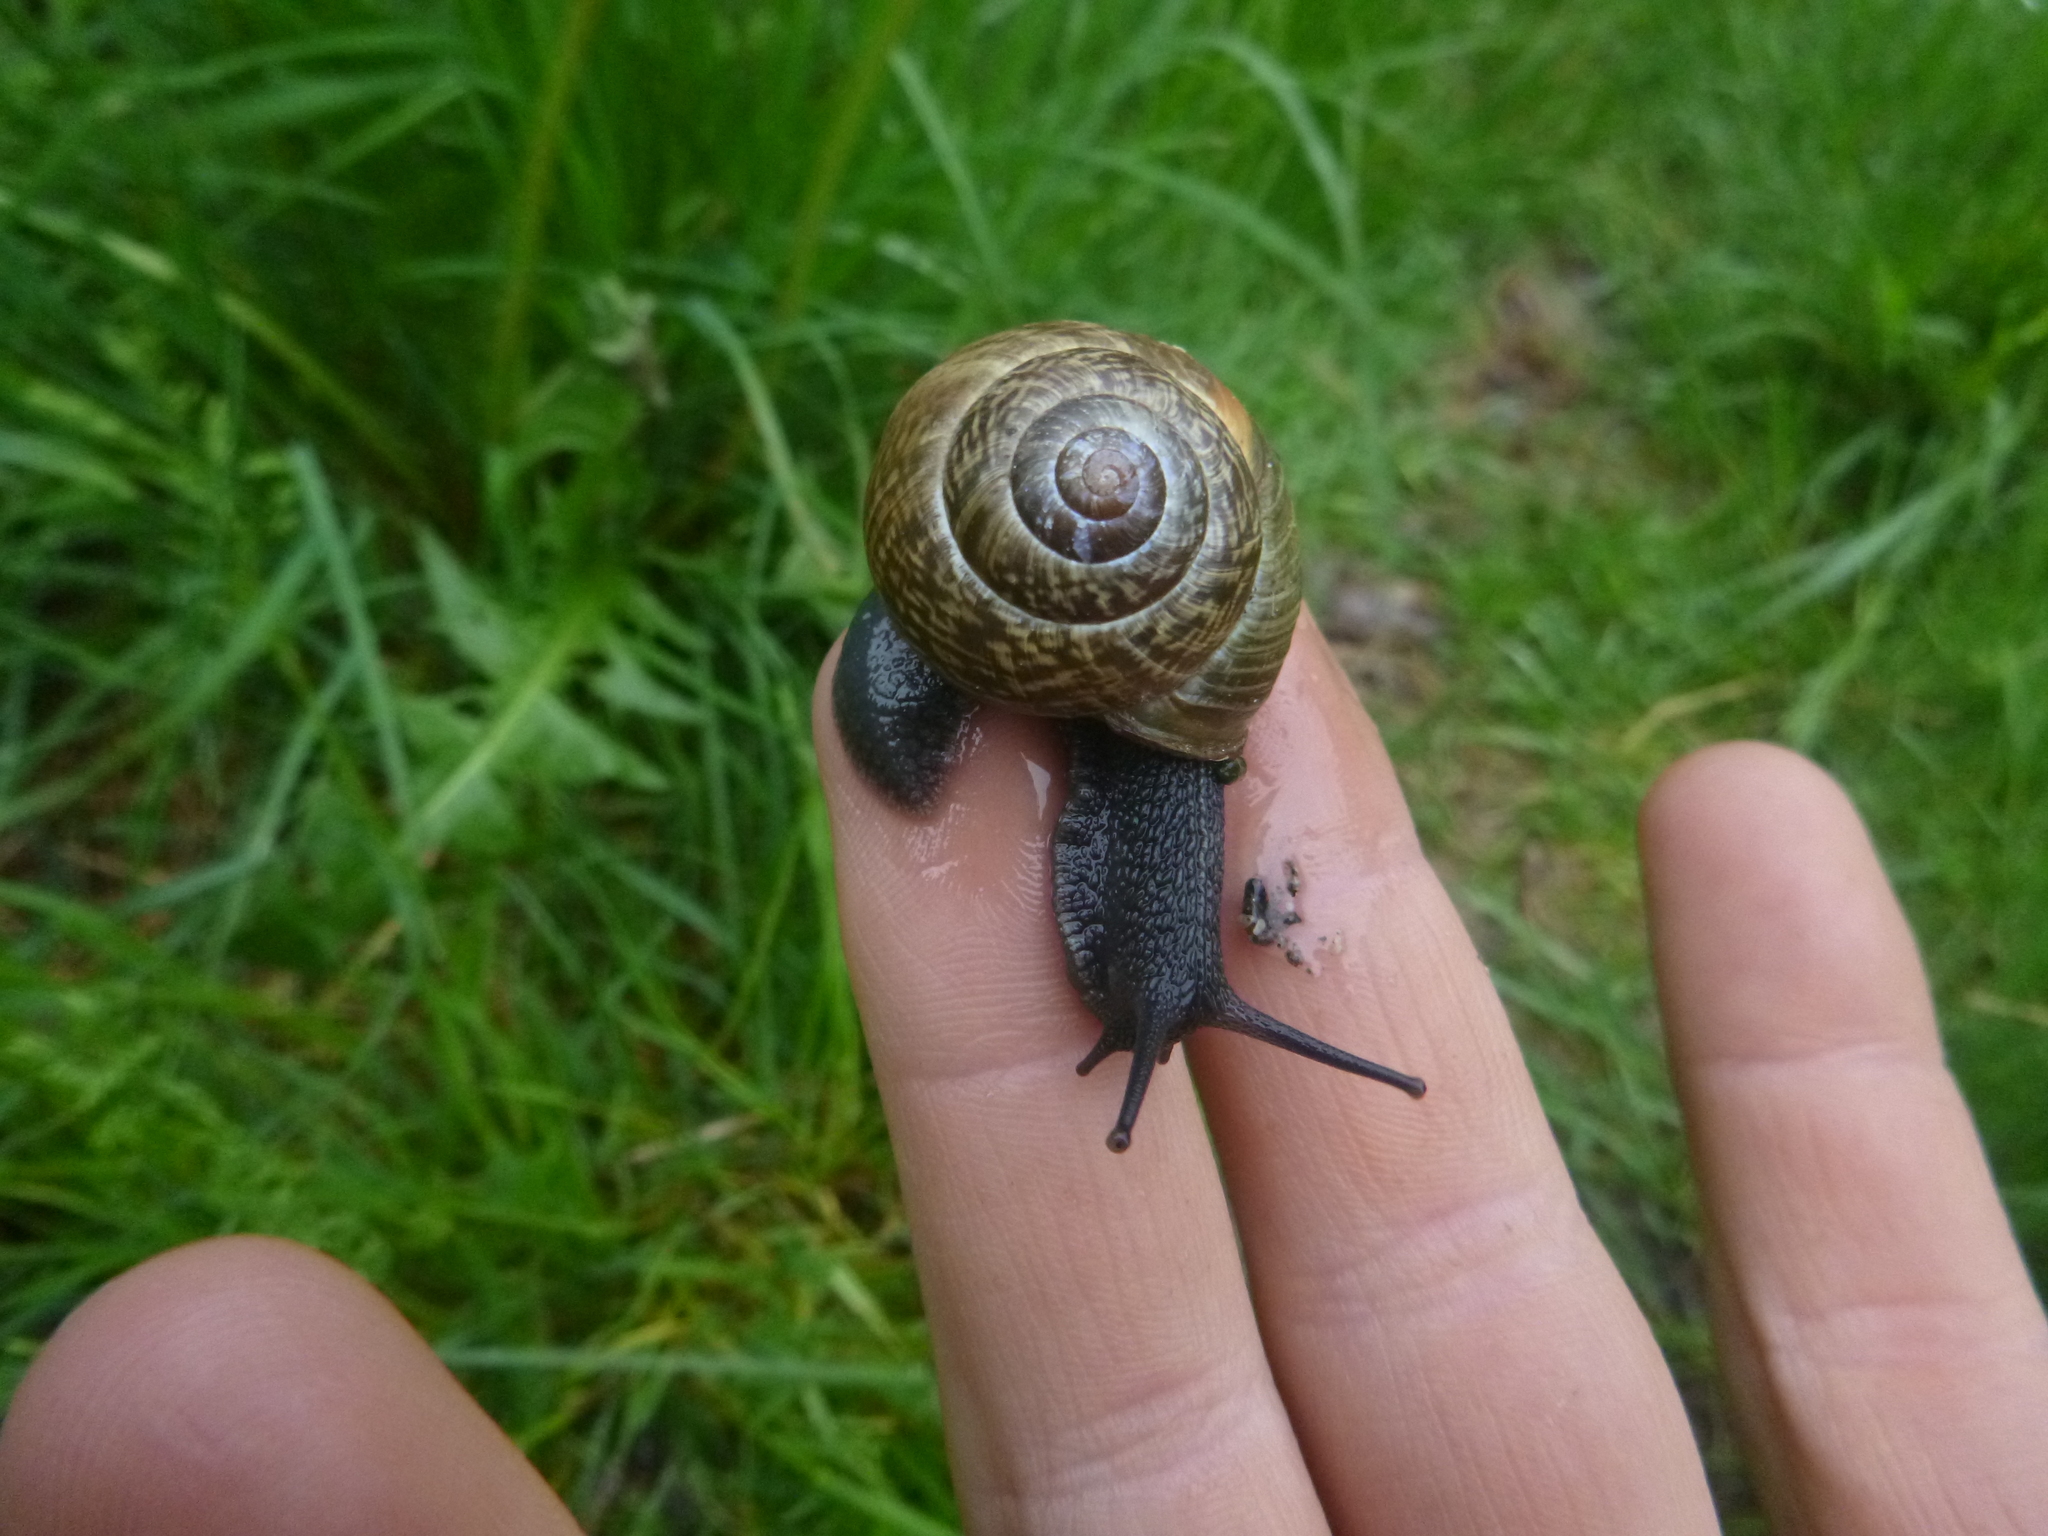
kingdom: Animalia
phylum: Mollusca
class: Gastropoda
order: Stylommatophora
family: Helicidae
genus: Arianta
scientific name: Arianta arbustorum
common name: Copse snail
